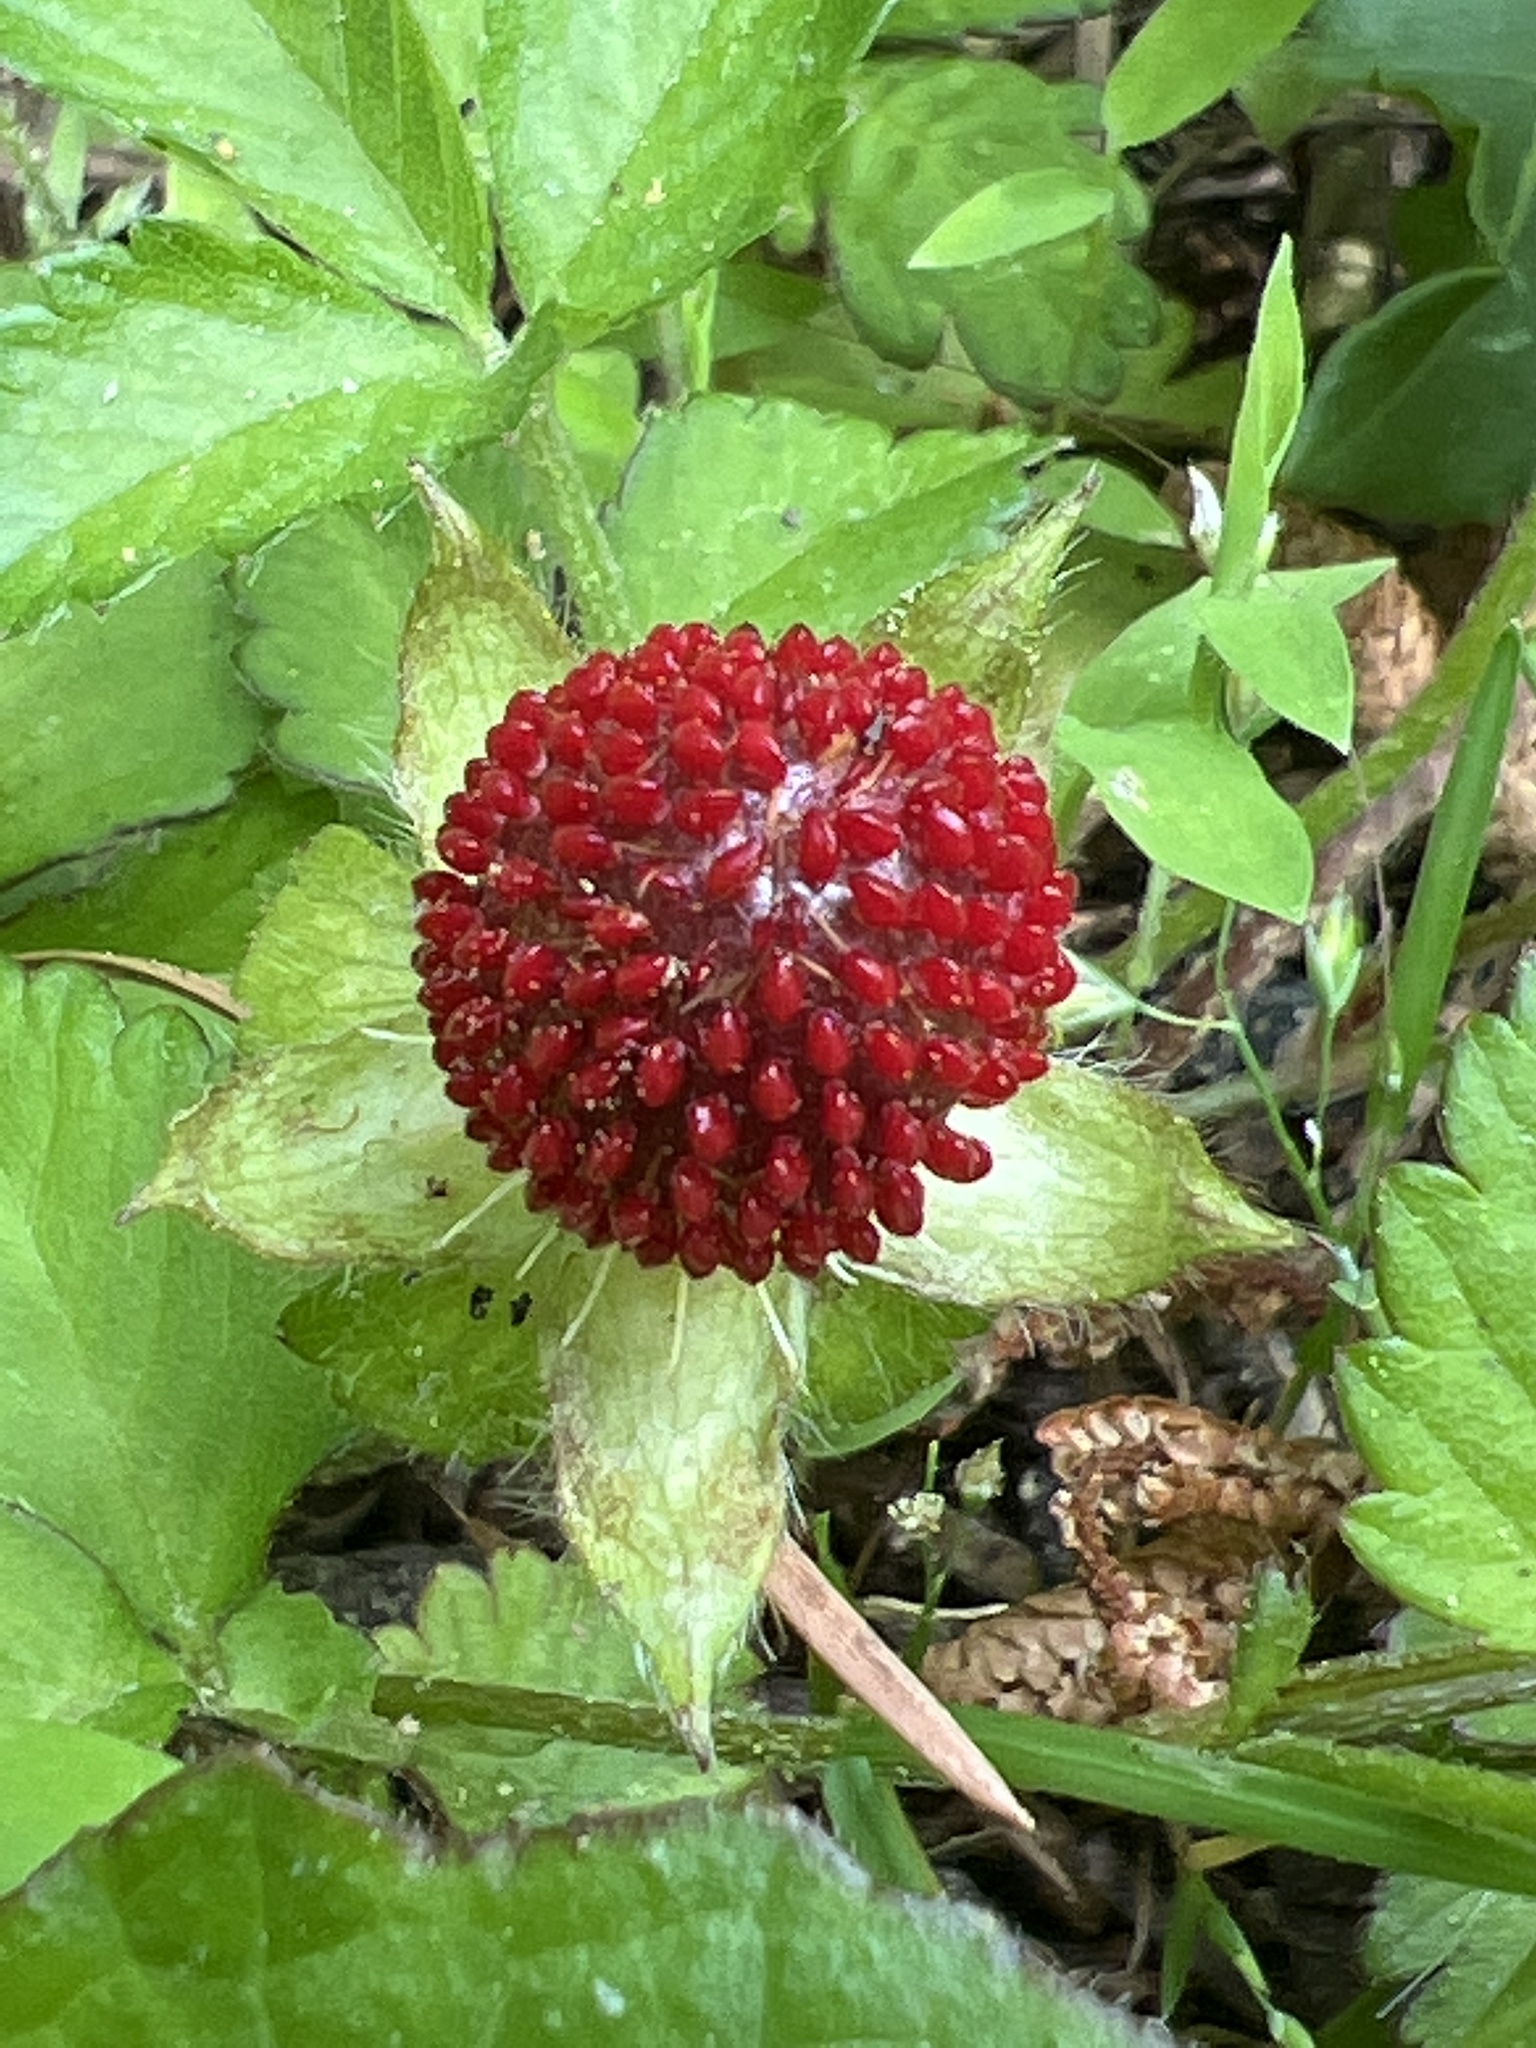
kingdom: Plantae
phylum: Tracheophyta
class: Magnoliopsida
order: Rosales
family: Rosaceae
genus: Potentilla
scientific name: Potentilla indica
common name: Yellow-flowered strawberry
